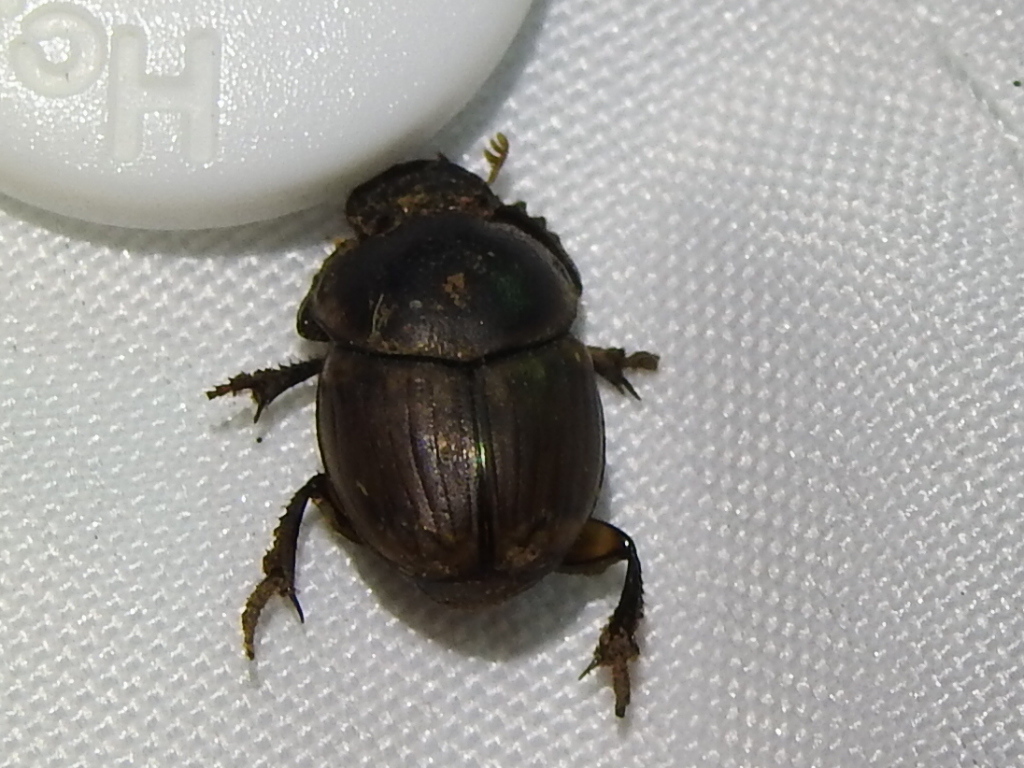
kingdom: Animalia
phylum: Arthropoda
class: Insecta
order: Coleoptera
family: Scarabaeidae
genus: Digitonthophagus
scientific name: Digitonthophagus gazella
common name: Brown dung beetle
